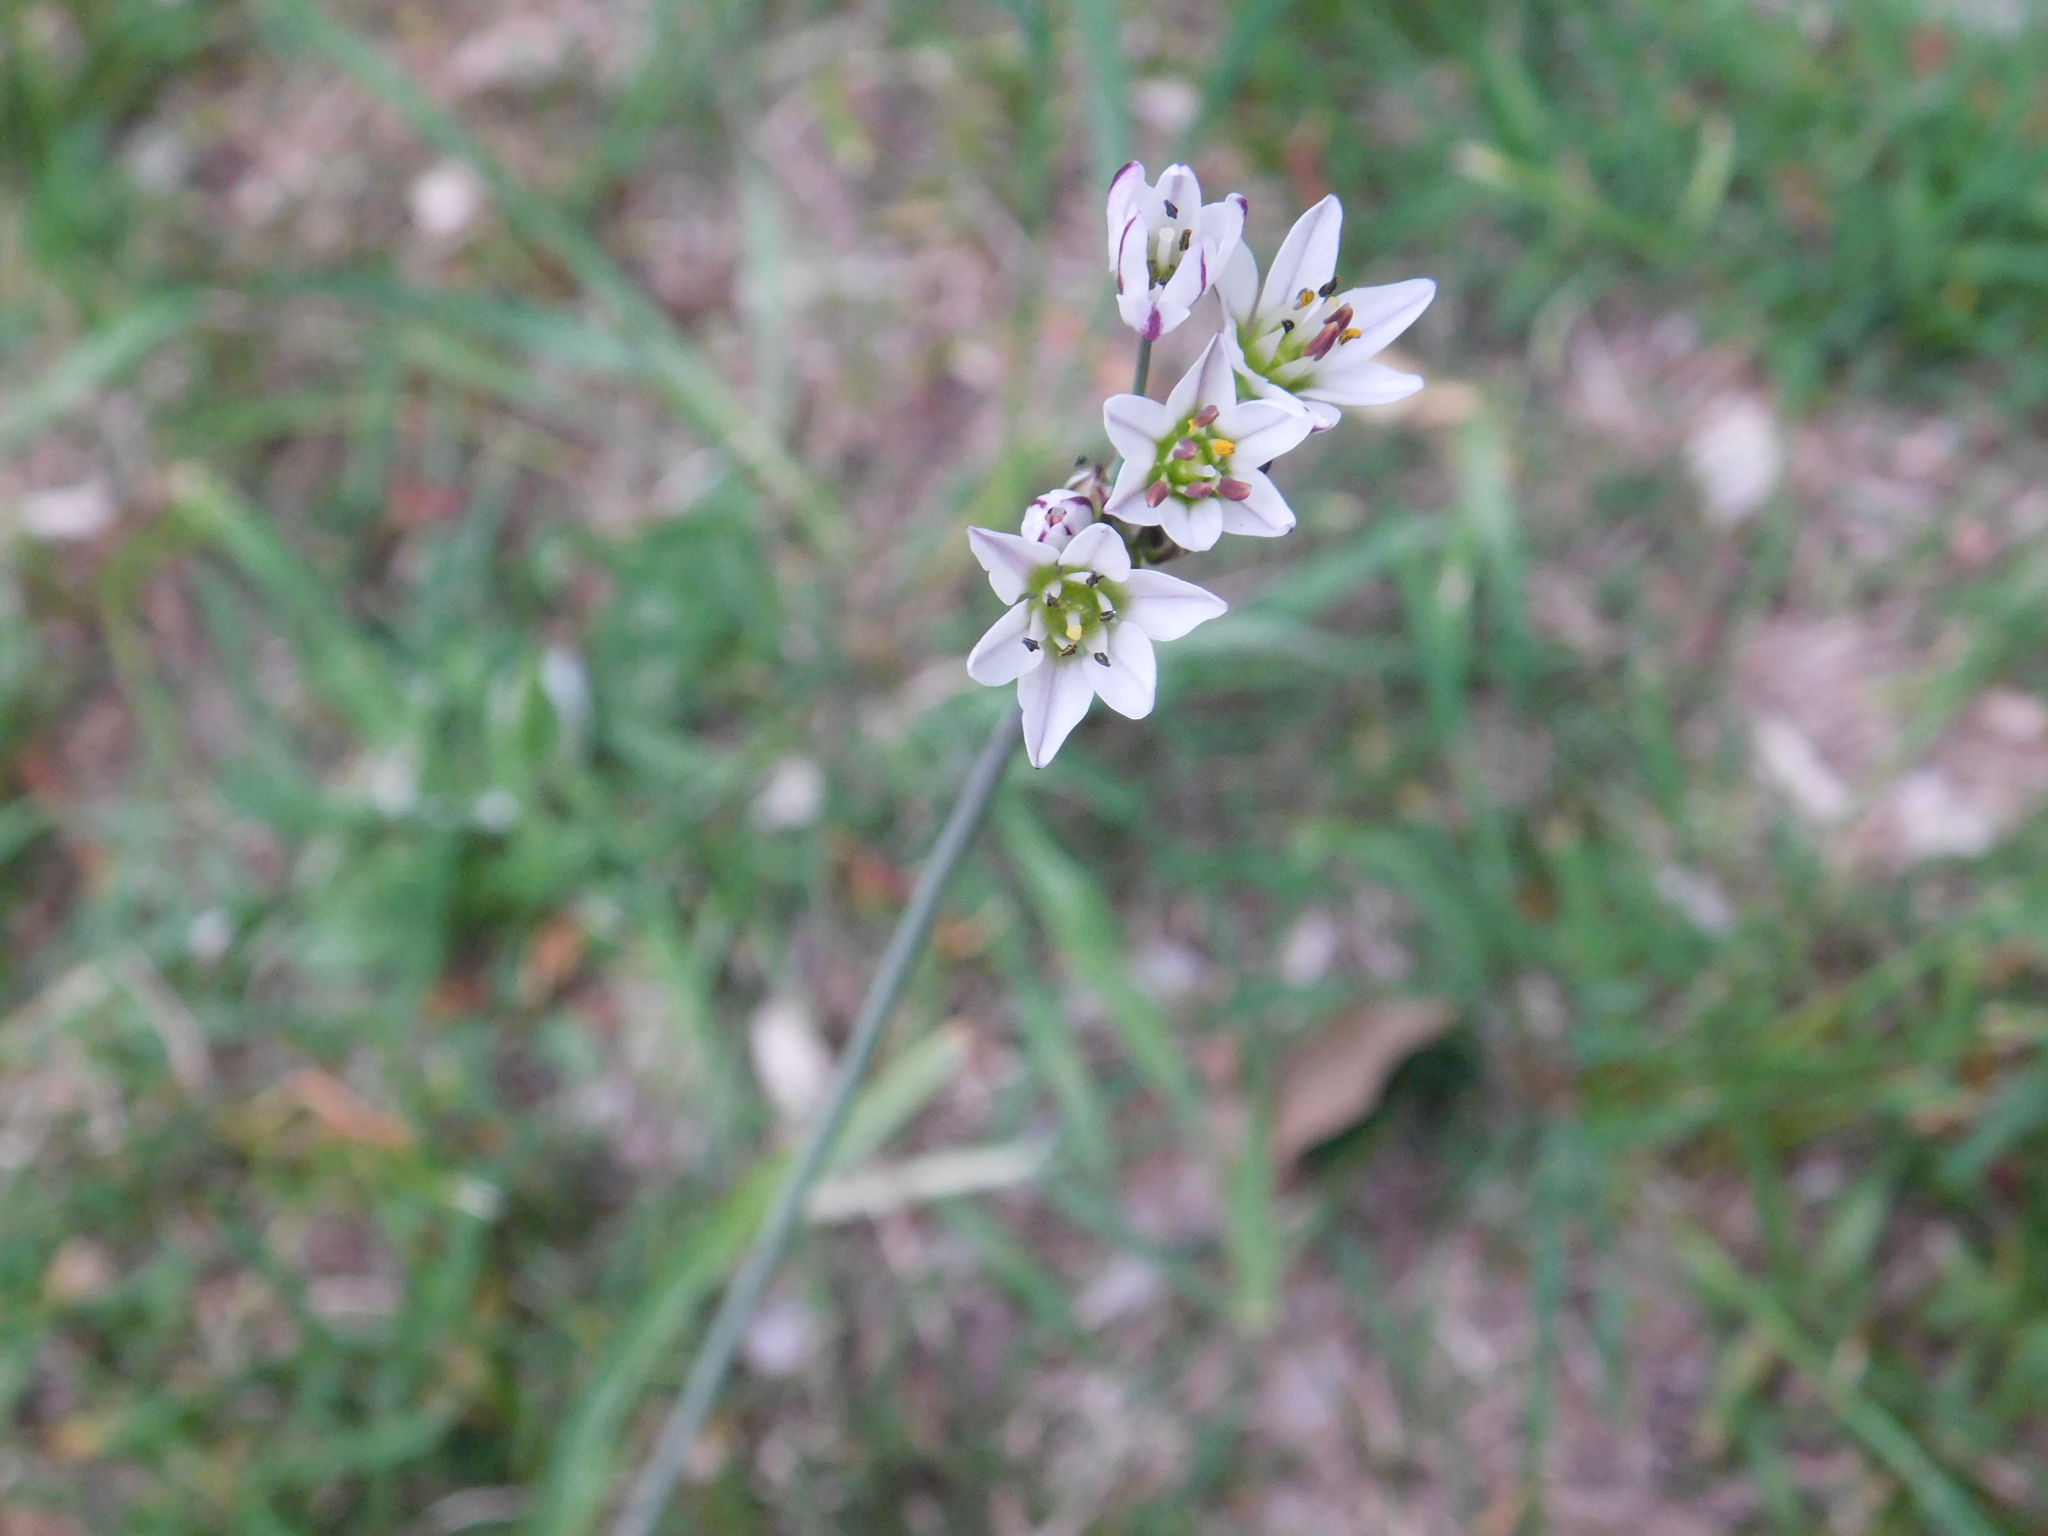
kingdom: Plantae
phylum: Tracheophyta
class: Liliopsida
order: Asparagales
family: Amaryllidaceae
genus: Nothoscordum
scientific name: Nothoscordum gracile
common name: Slender false garlic
